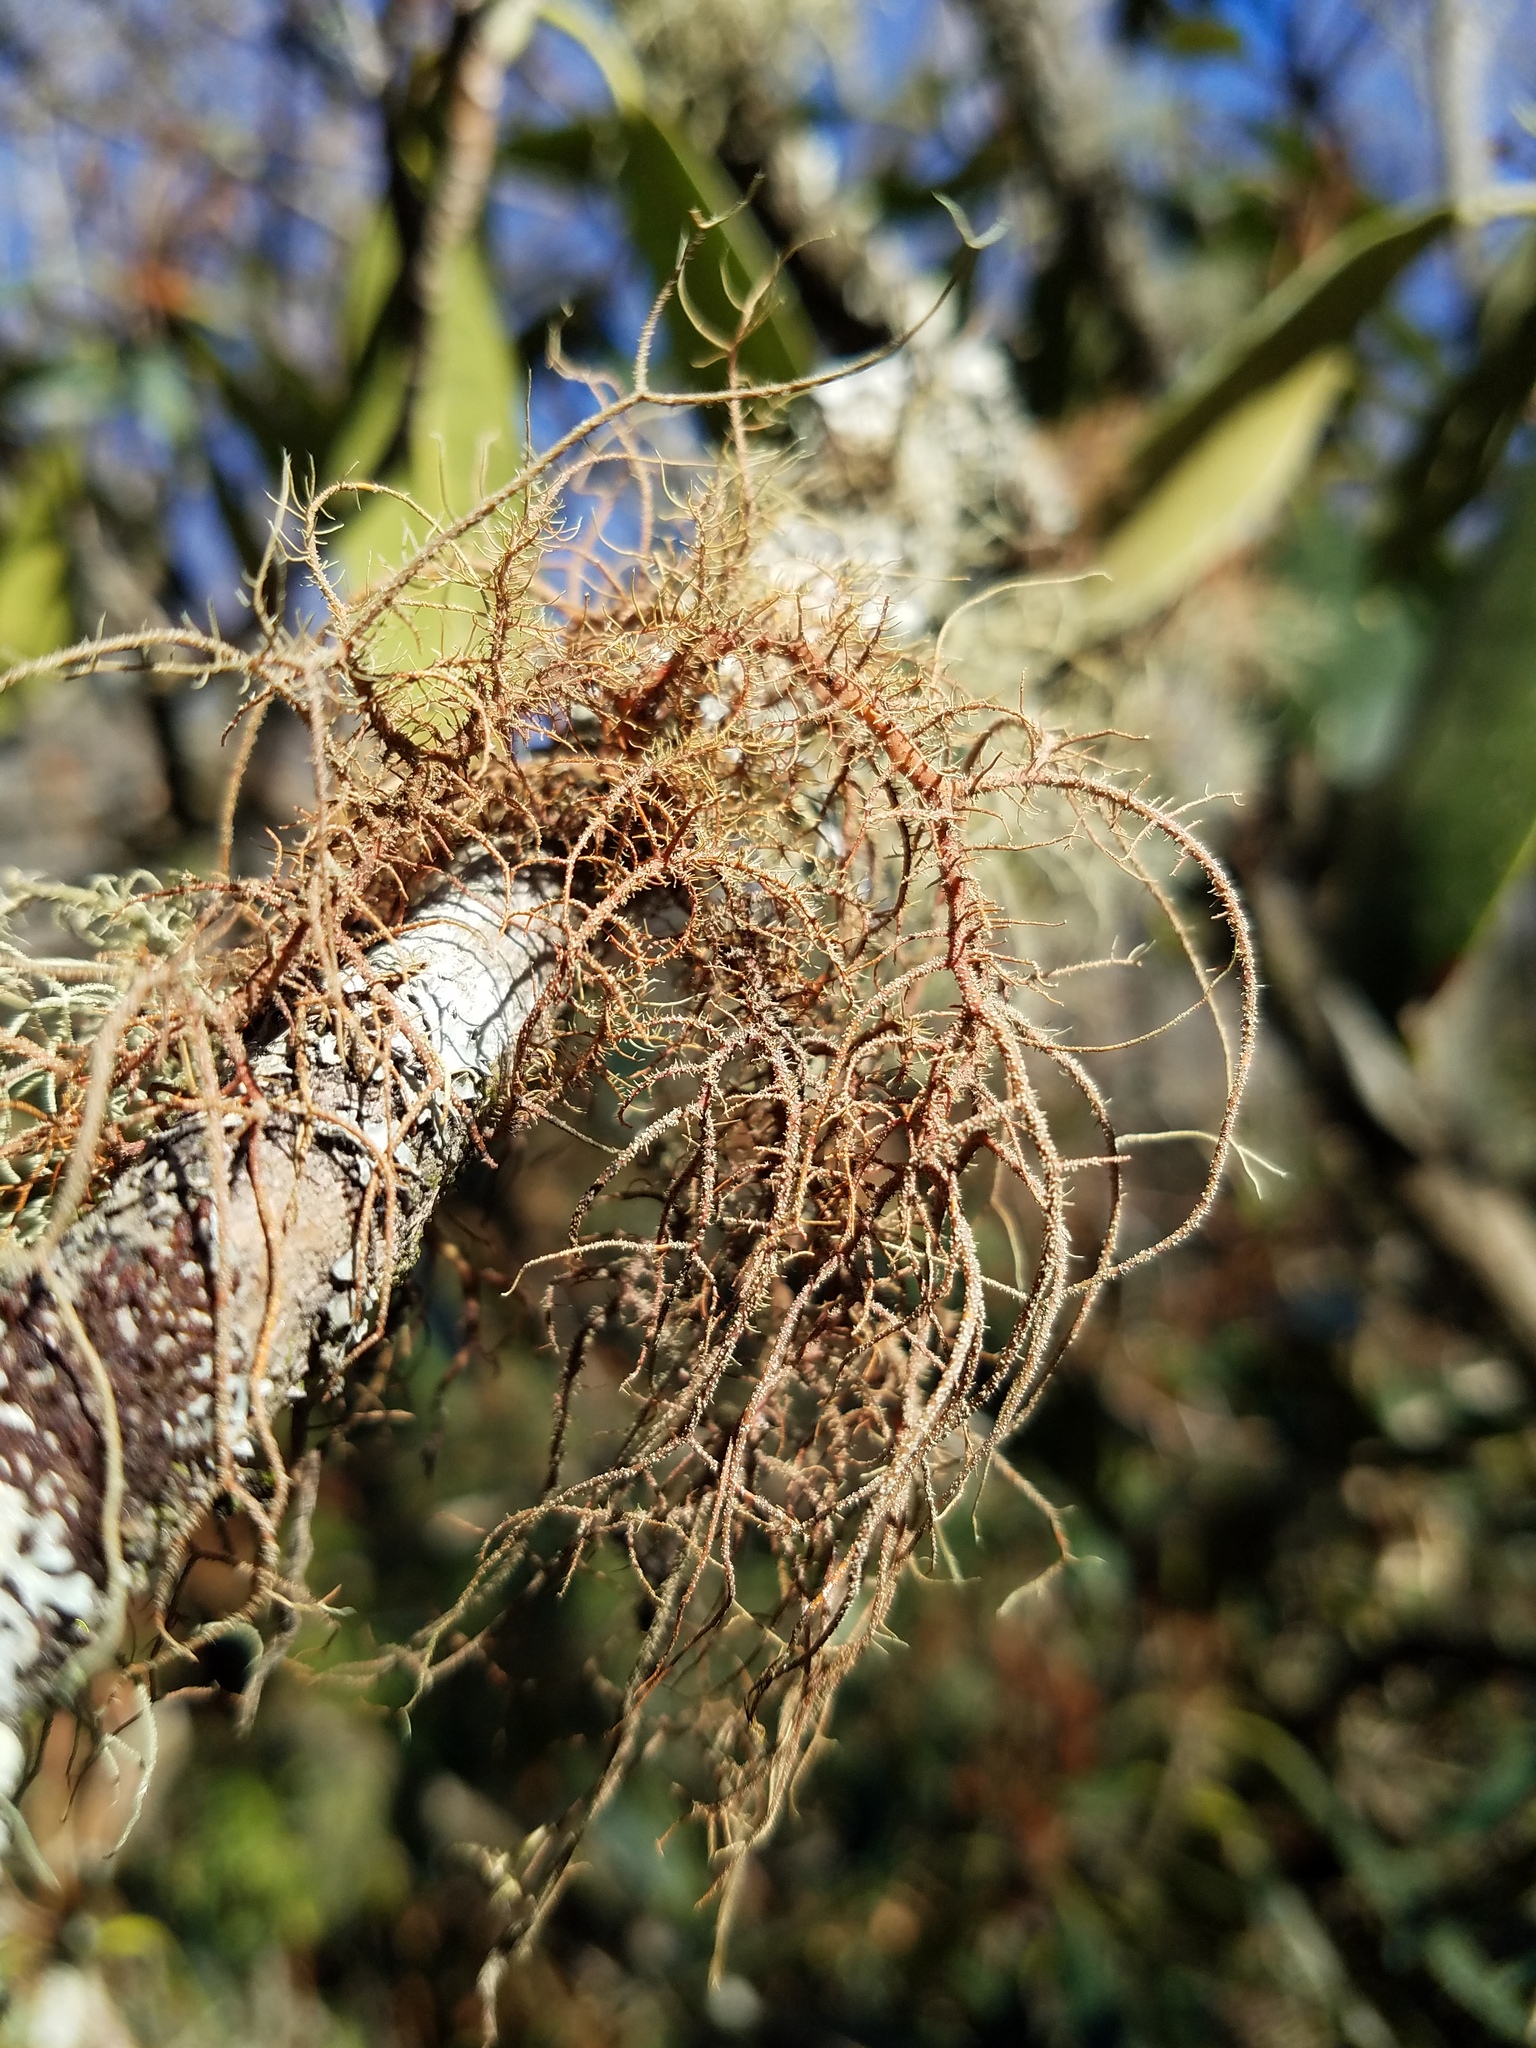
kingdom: Fungi
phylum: Ascomycota
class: Lecanoromycetes
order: Lecanorales
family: Parmeliaceae
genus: Usnea
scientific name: Usnea rubicunda
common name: Red beard lichen
